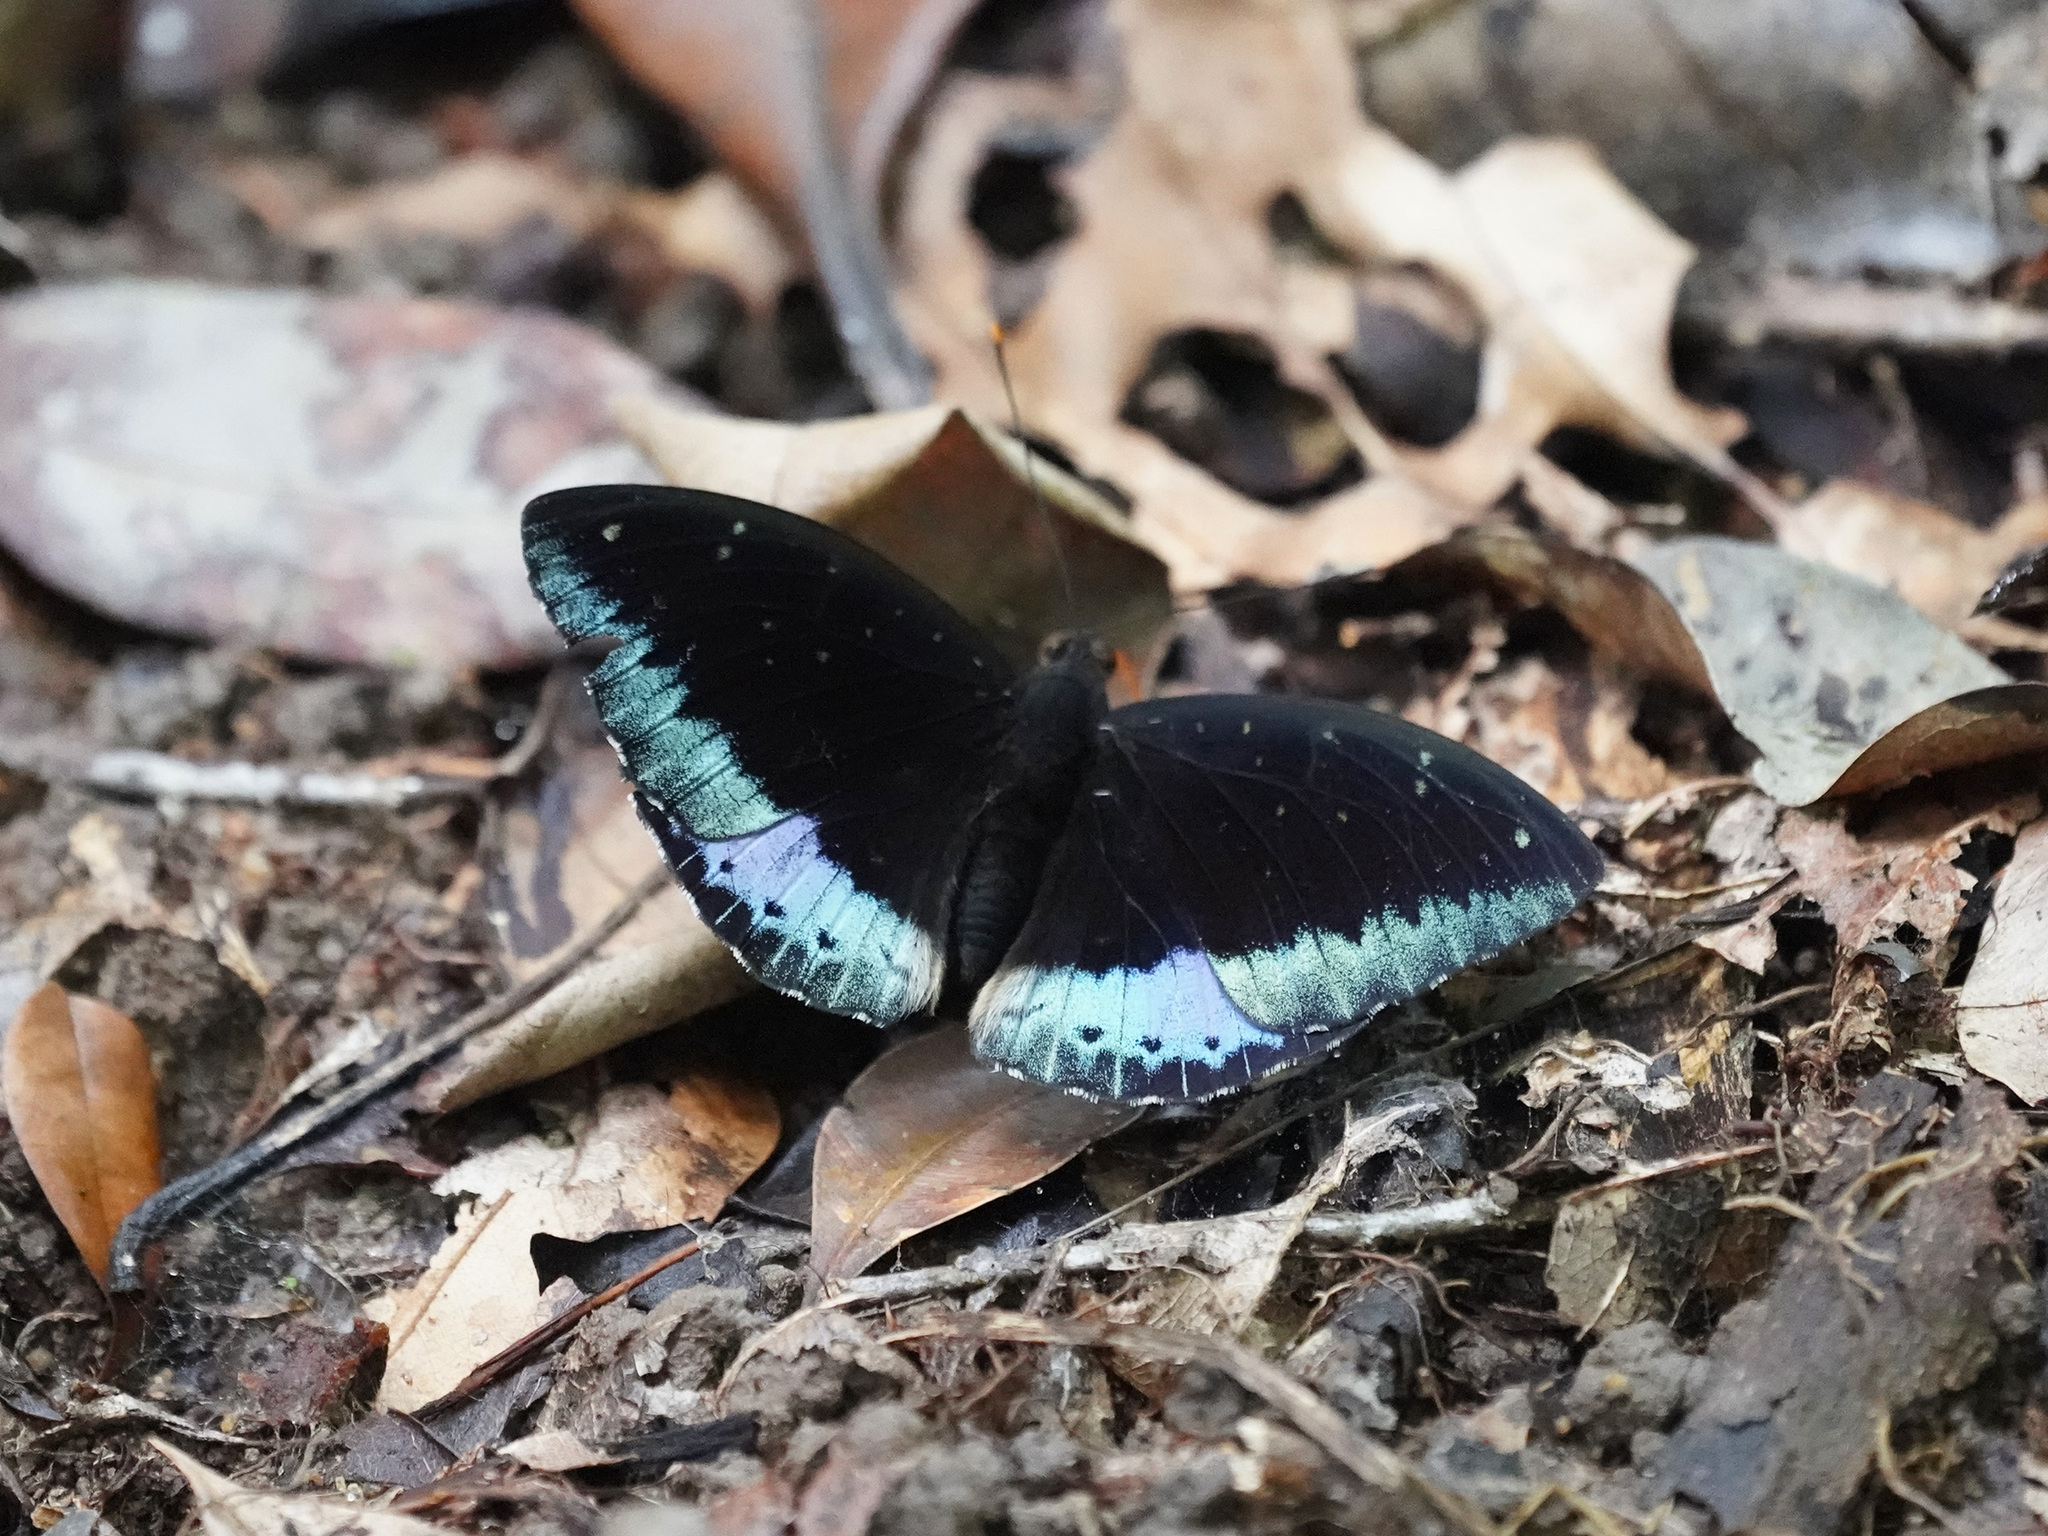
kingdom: Animalia
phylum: Arthropoda
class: Insecta
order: Lepidoptera
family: Nymphalidae
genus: Lexias
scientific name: Lexias pardalis
